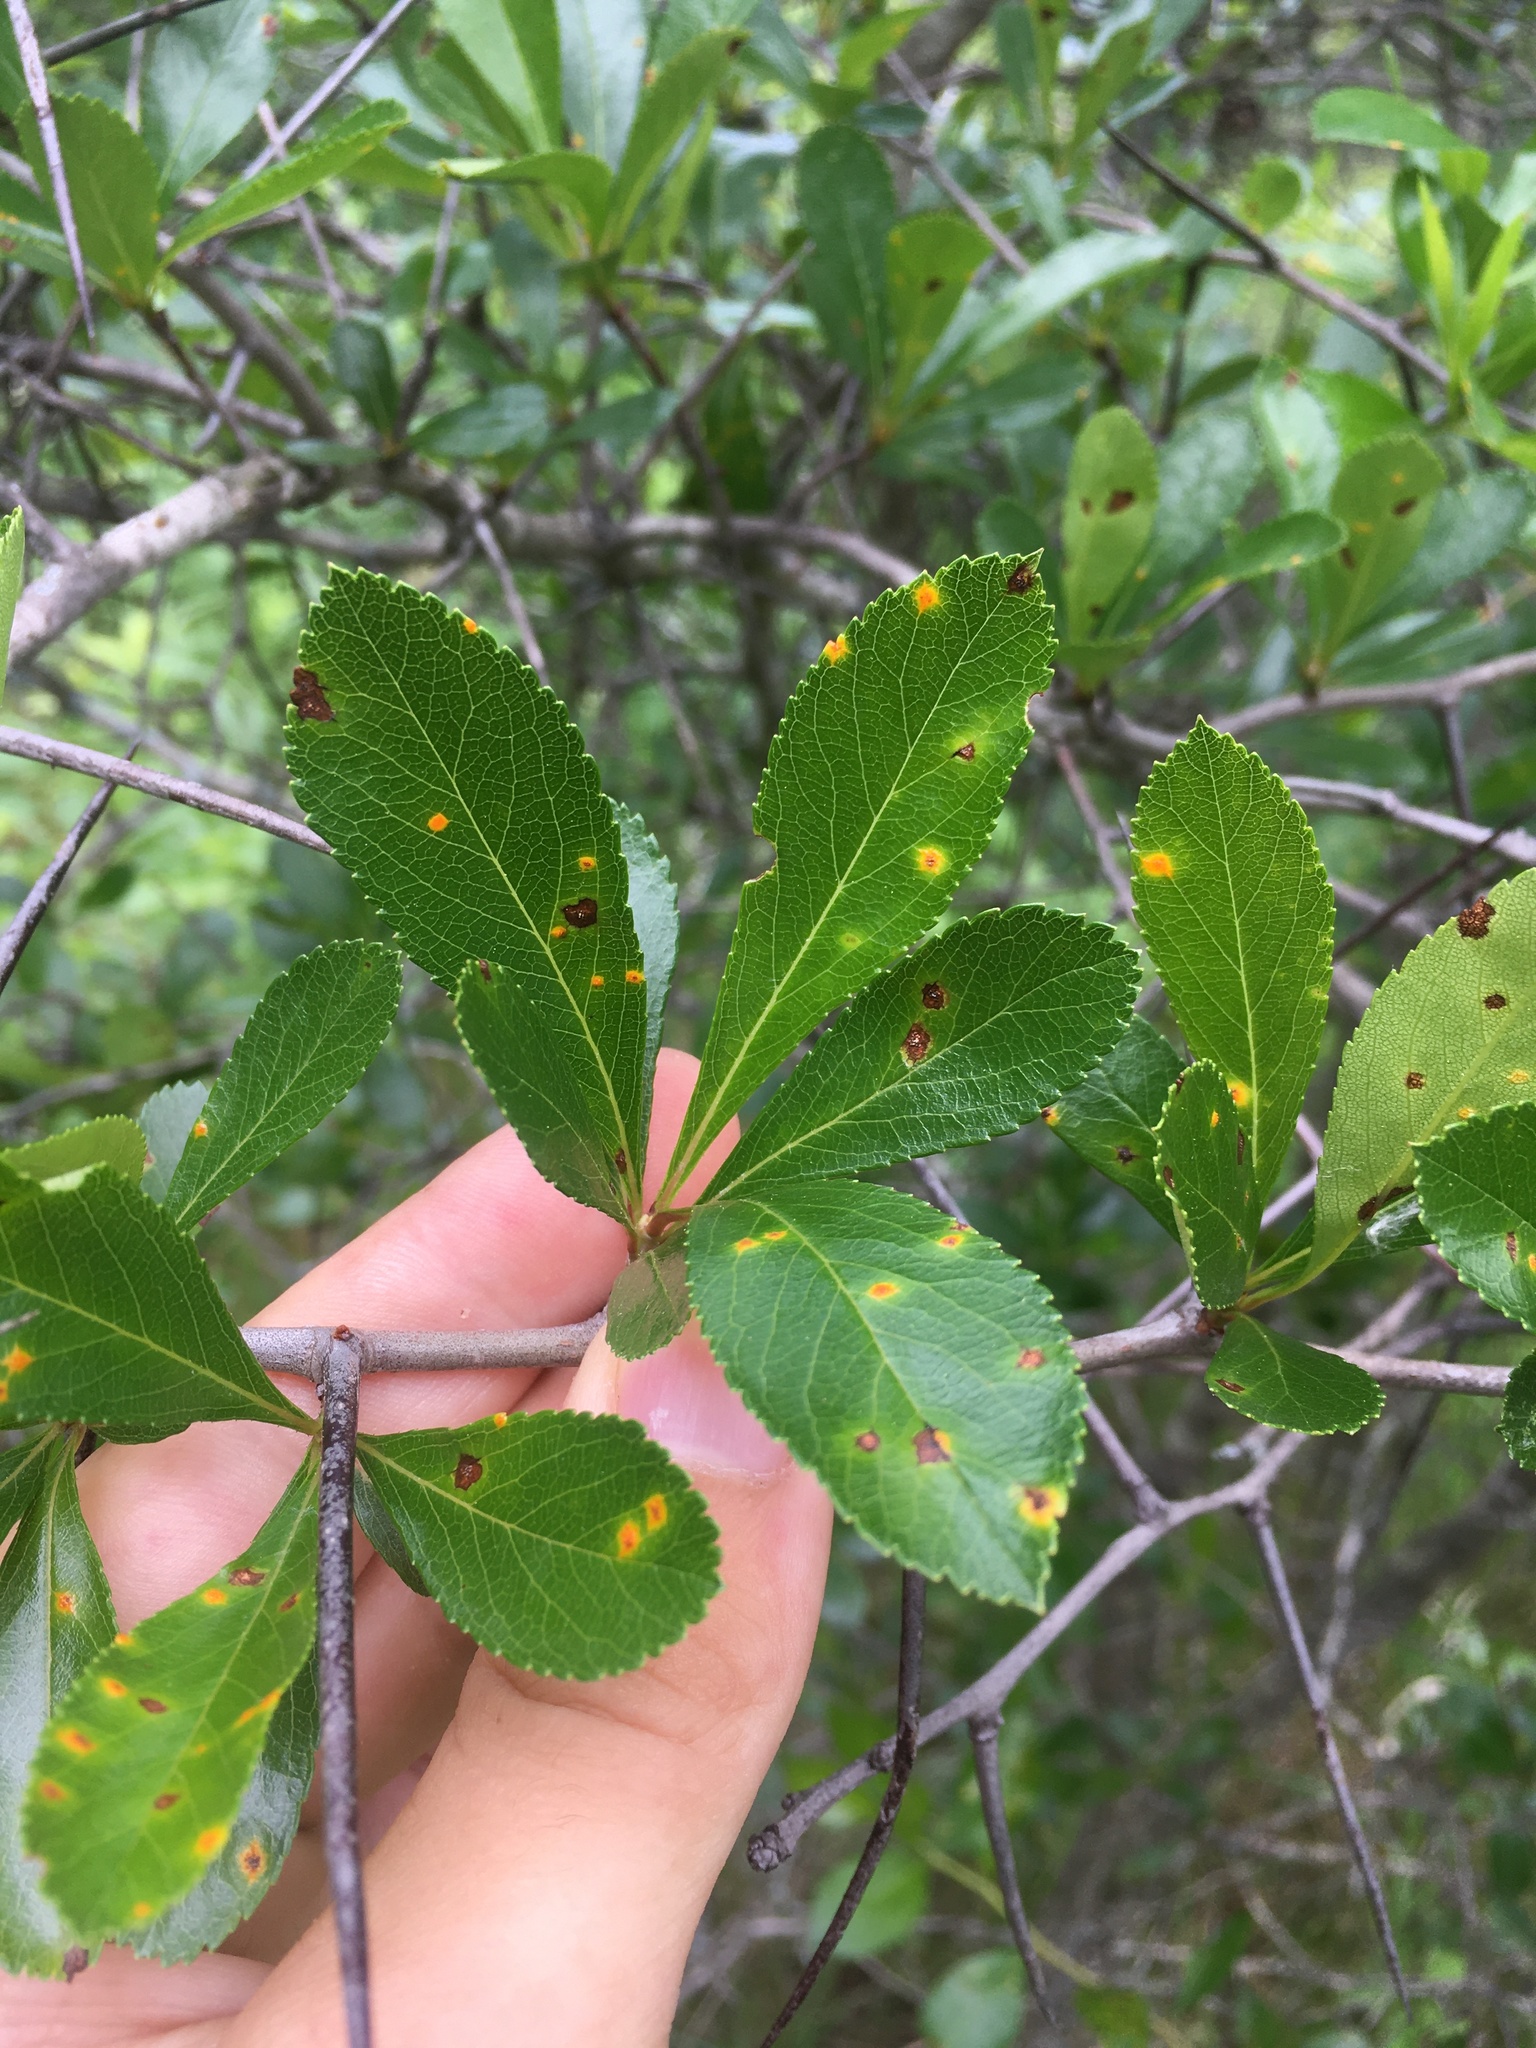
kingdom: Fungi
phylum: Basidiomycota
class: Pucciniomycetes
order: Pucciniales
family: Gymnosporangiaceae
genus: Gymnosporangium
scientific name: Gymnosporangium globosum
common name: Juniper-hawthorn rust
